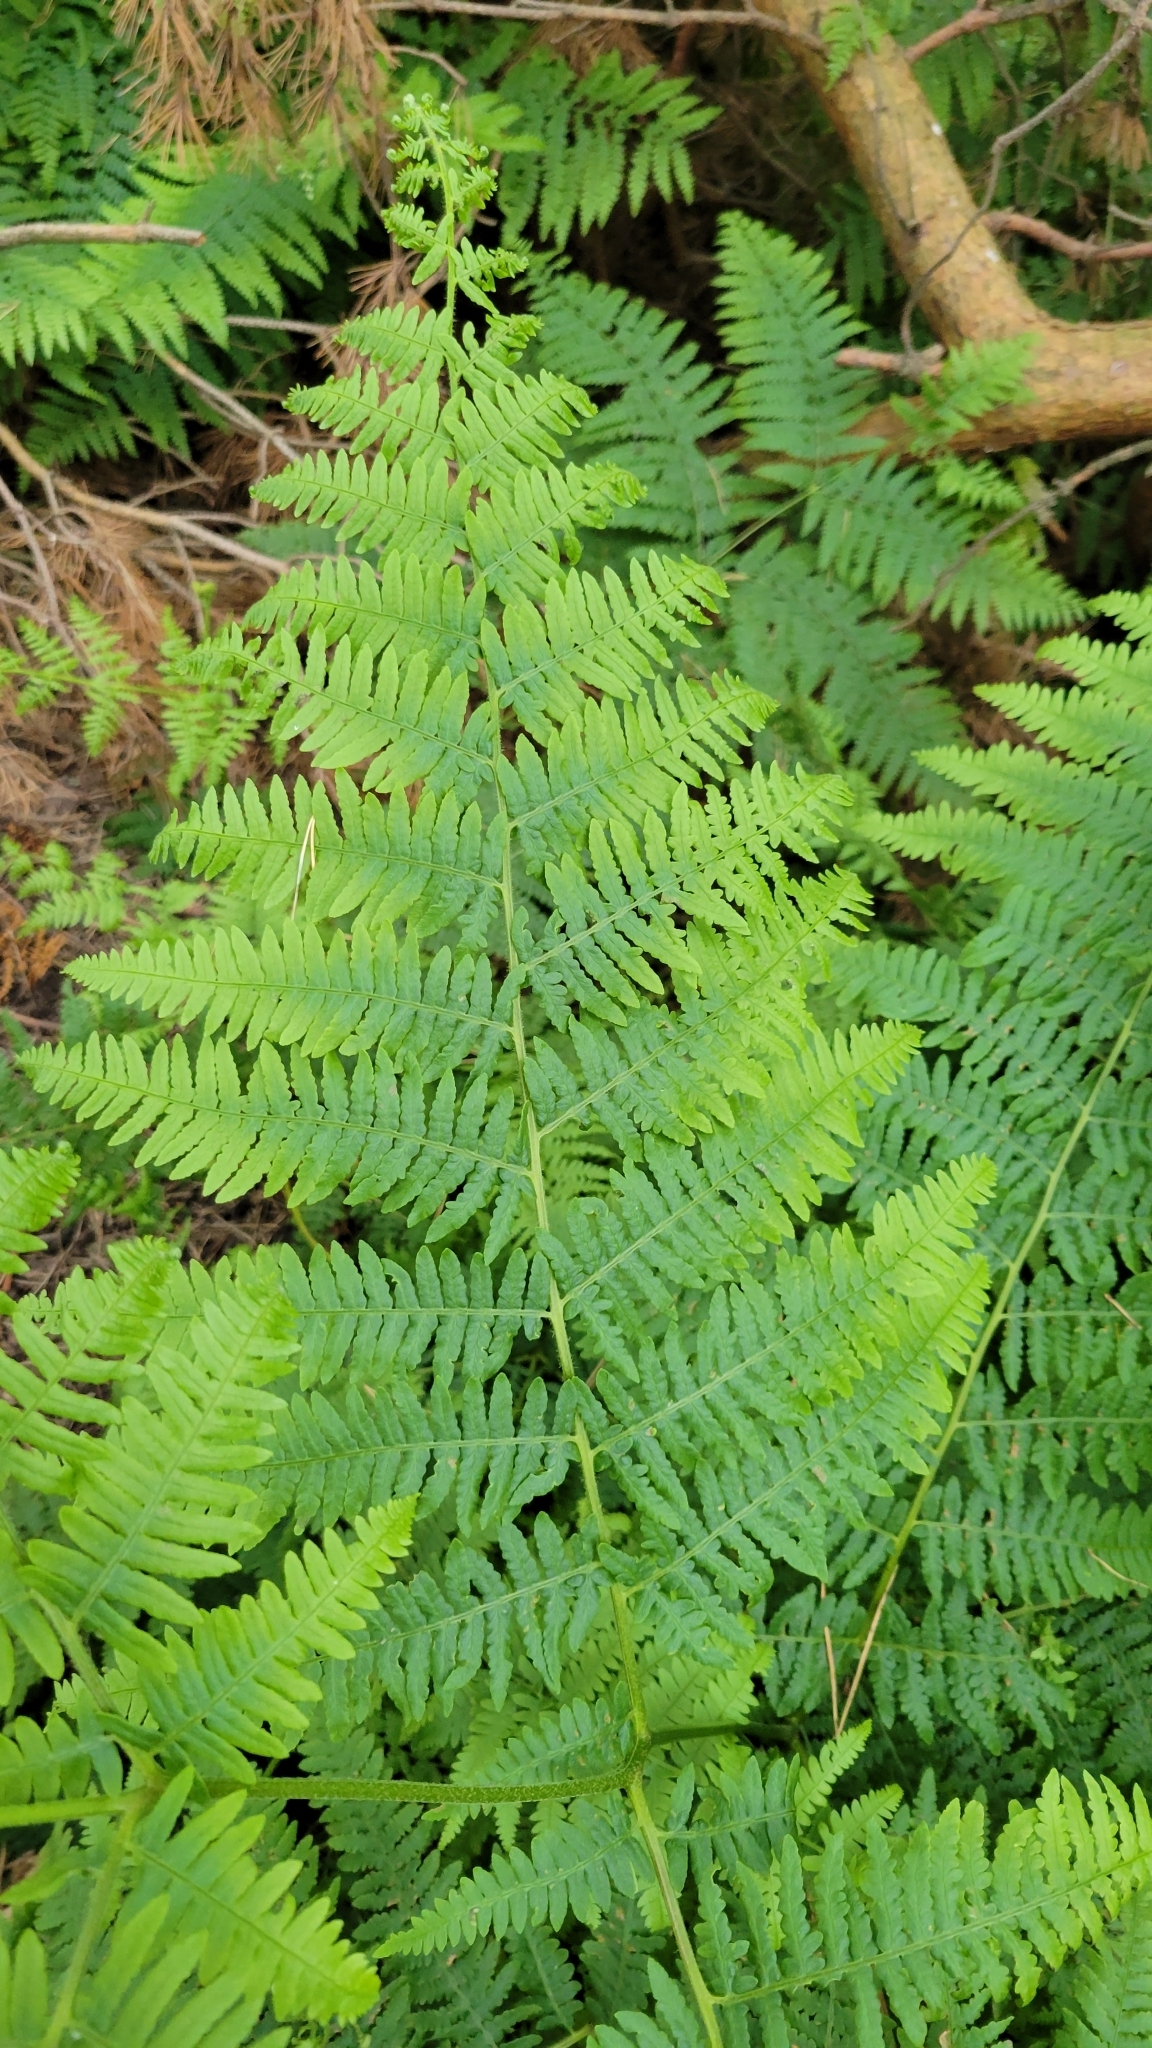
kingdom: Plantae
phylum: Tracheophyta
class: Polypodiopsida
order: Polypodiales
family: Dennstaedtiaceae
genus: Pteridium
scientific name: Pteridium aquilinum
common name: Bracken
